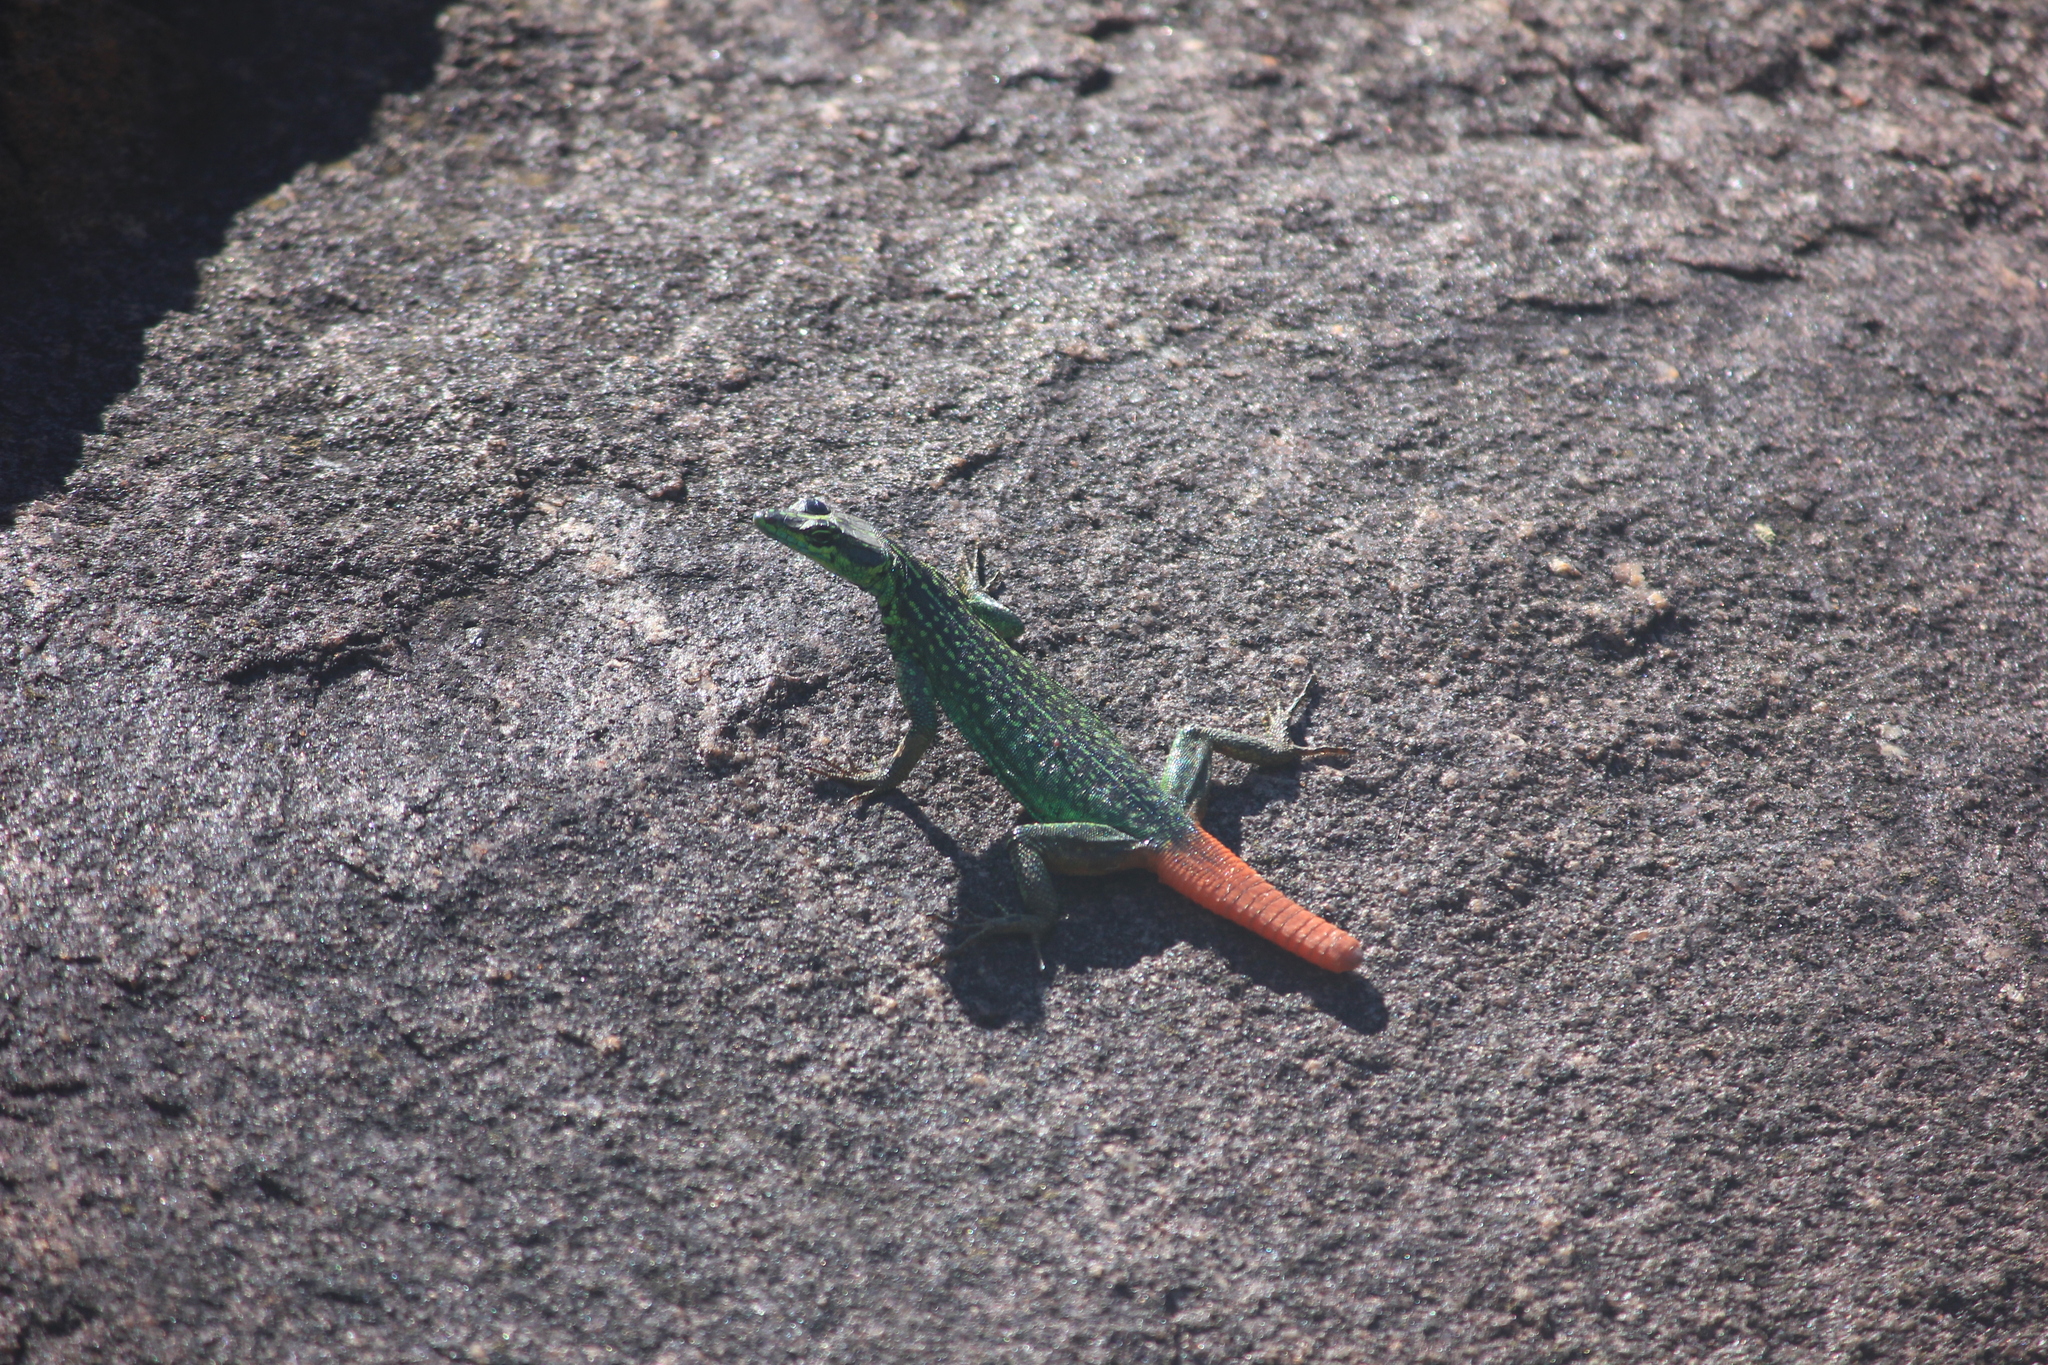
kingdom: Animalia
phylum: Chordata
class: Squamata
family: Cordylidae
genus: Platysaurus
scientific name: Platysaurus relictus
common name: Soutpansberg flat lizard
